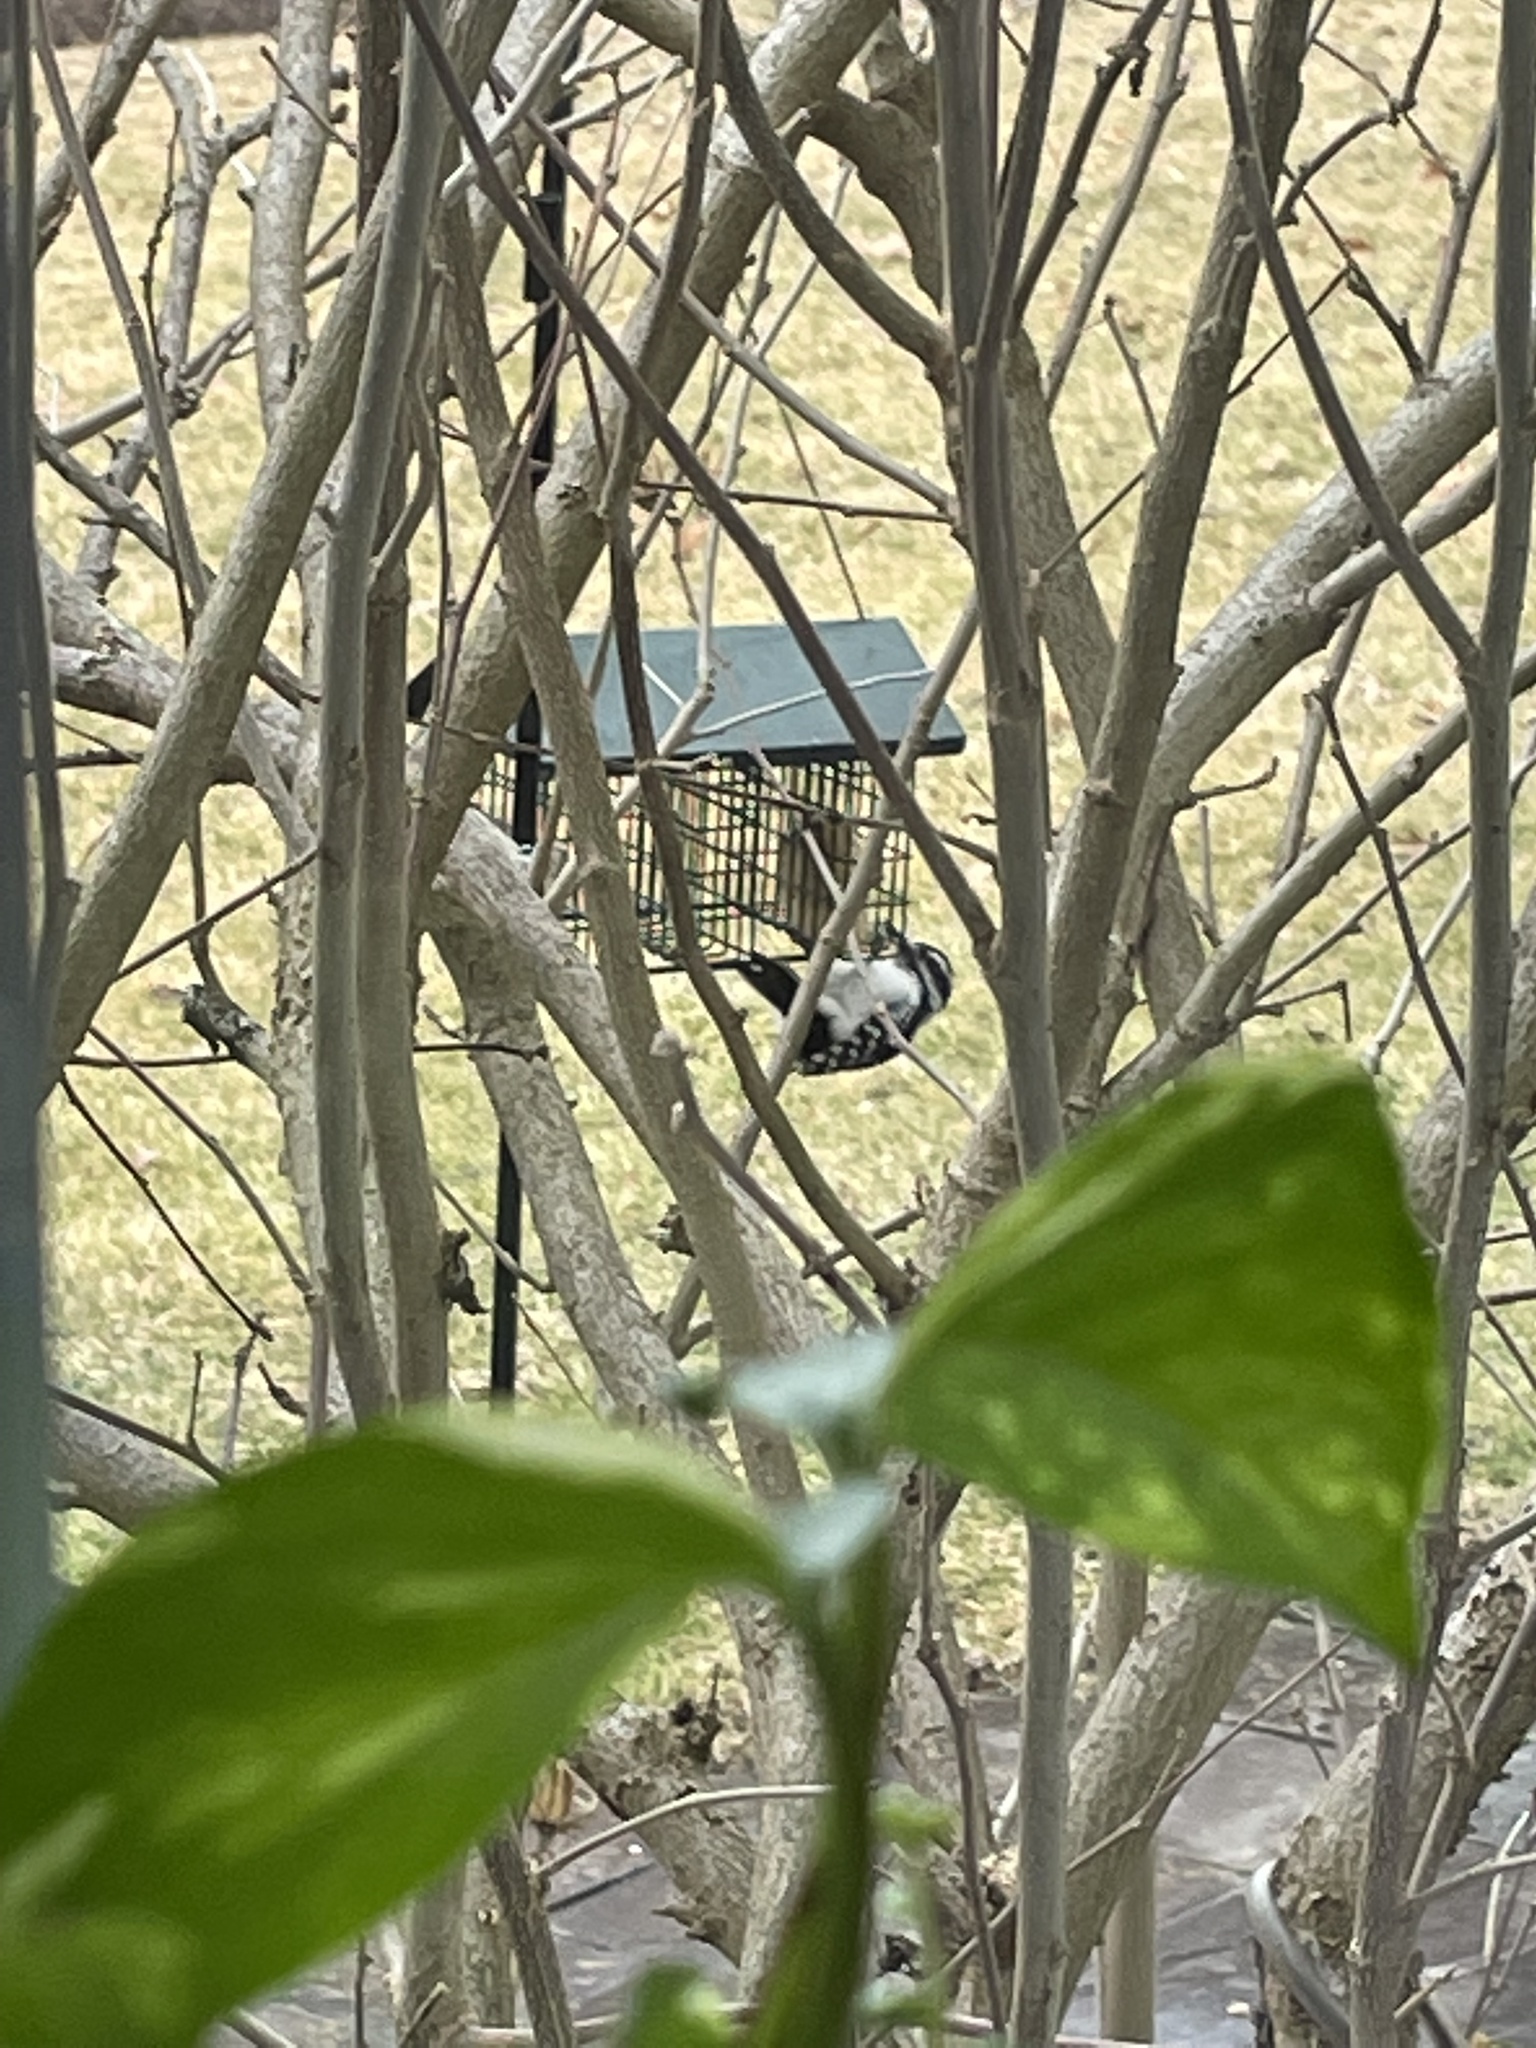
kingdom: Animalia
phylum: Chordata
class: Aves
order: Piciformes
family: Picidae
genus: Leuconotopicus
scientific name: Leuconotopicus villosus
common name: Hairy woodpecker
